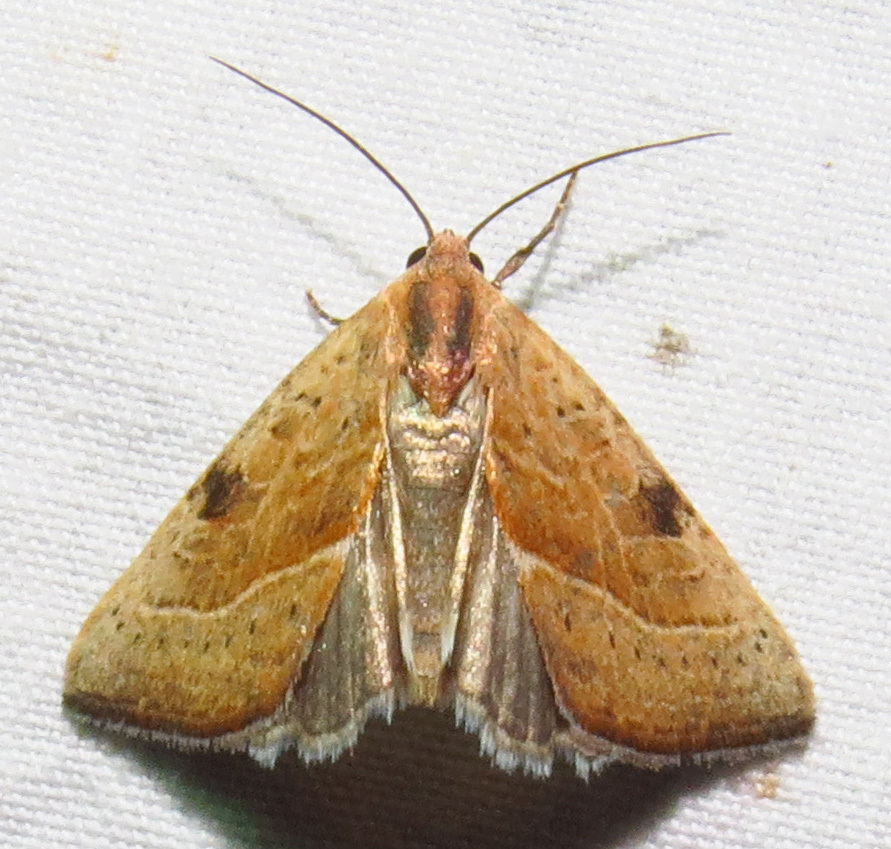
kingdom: Animalia
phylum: Arthropoda
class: Insecta
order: Lepidoptera
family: Noctuidae
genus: Galgula
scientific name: Galgula partita
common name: Wedgeling
